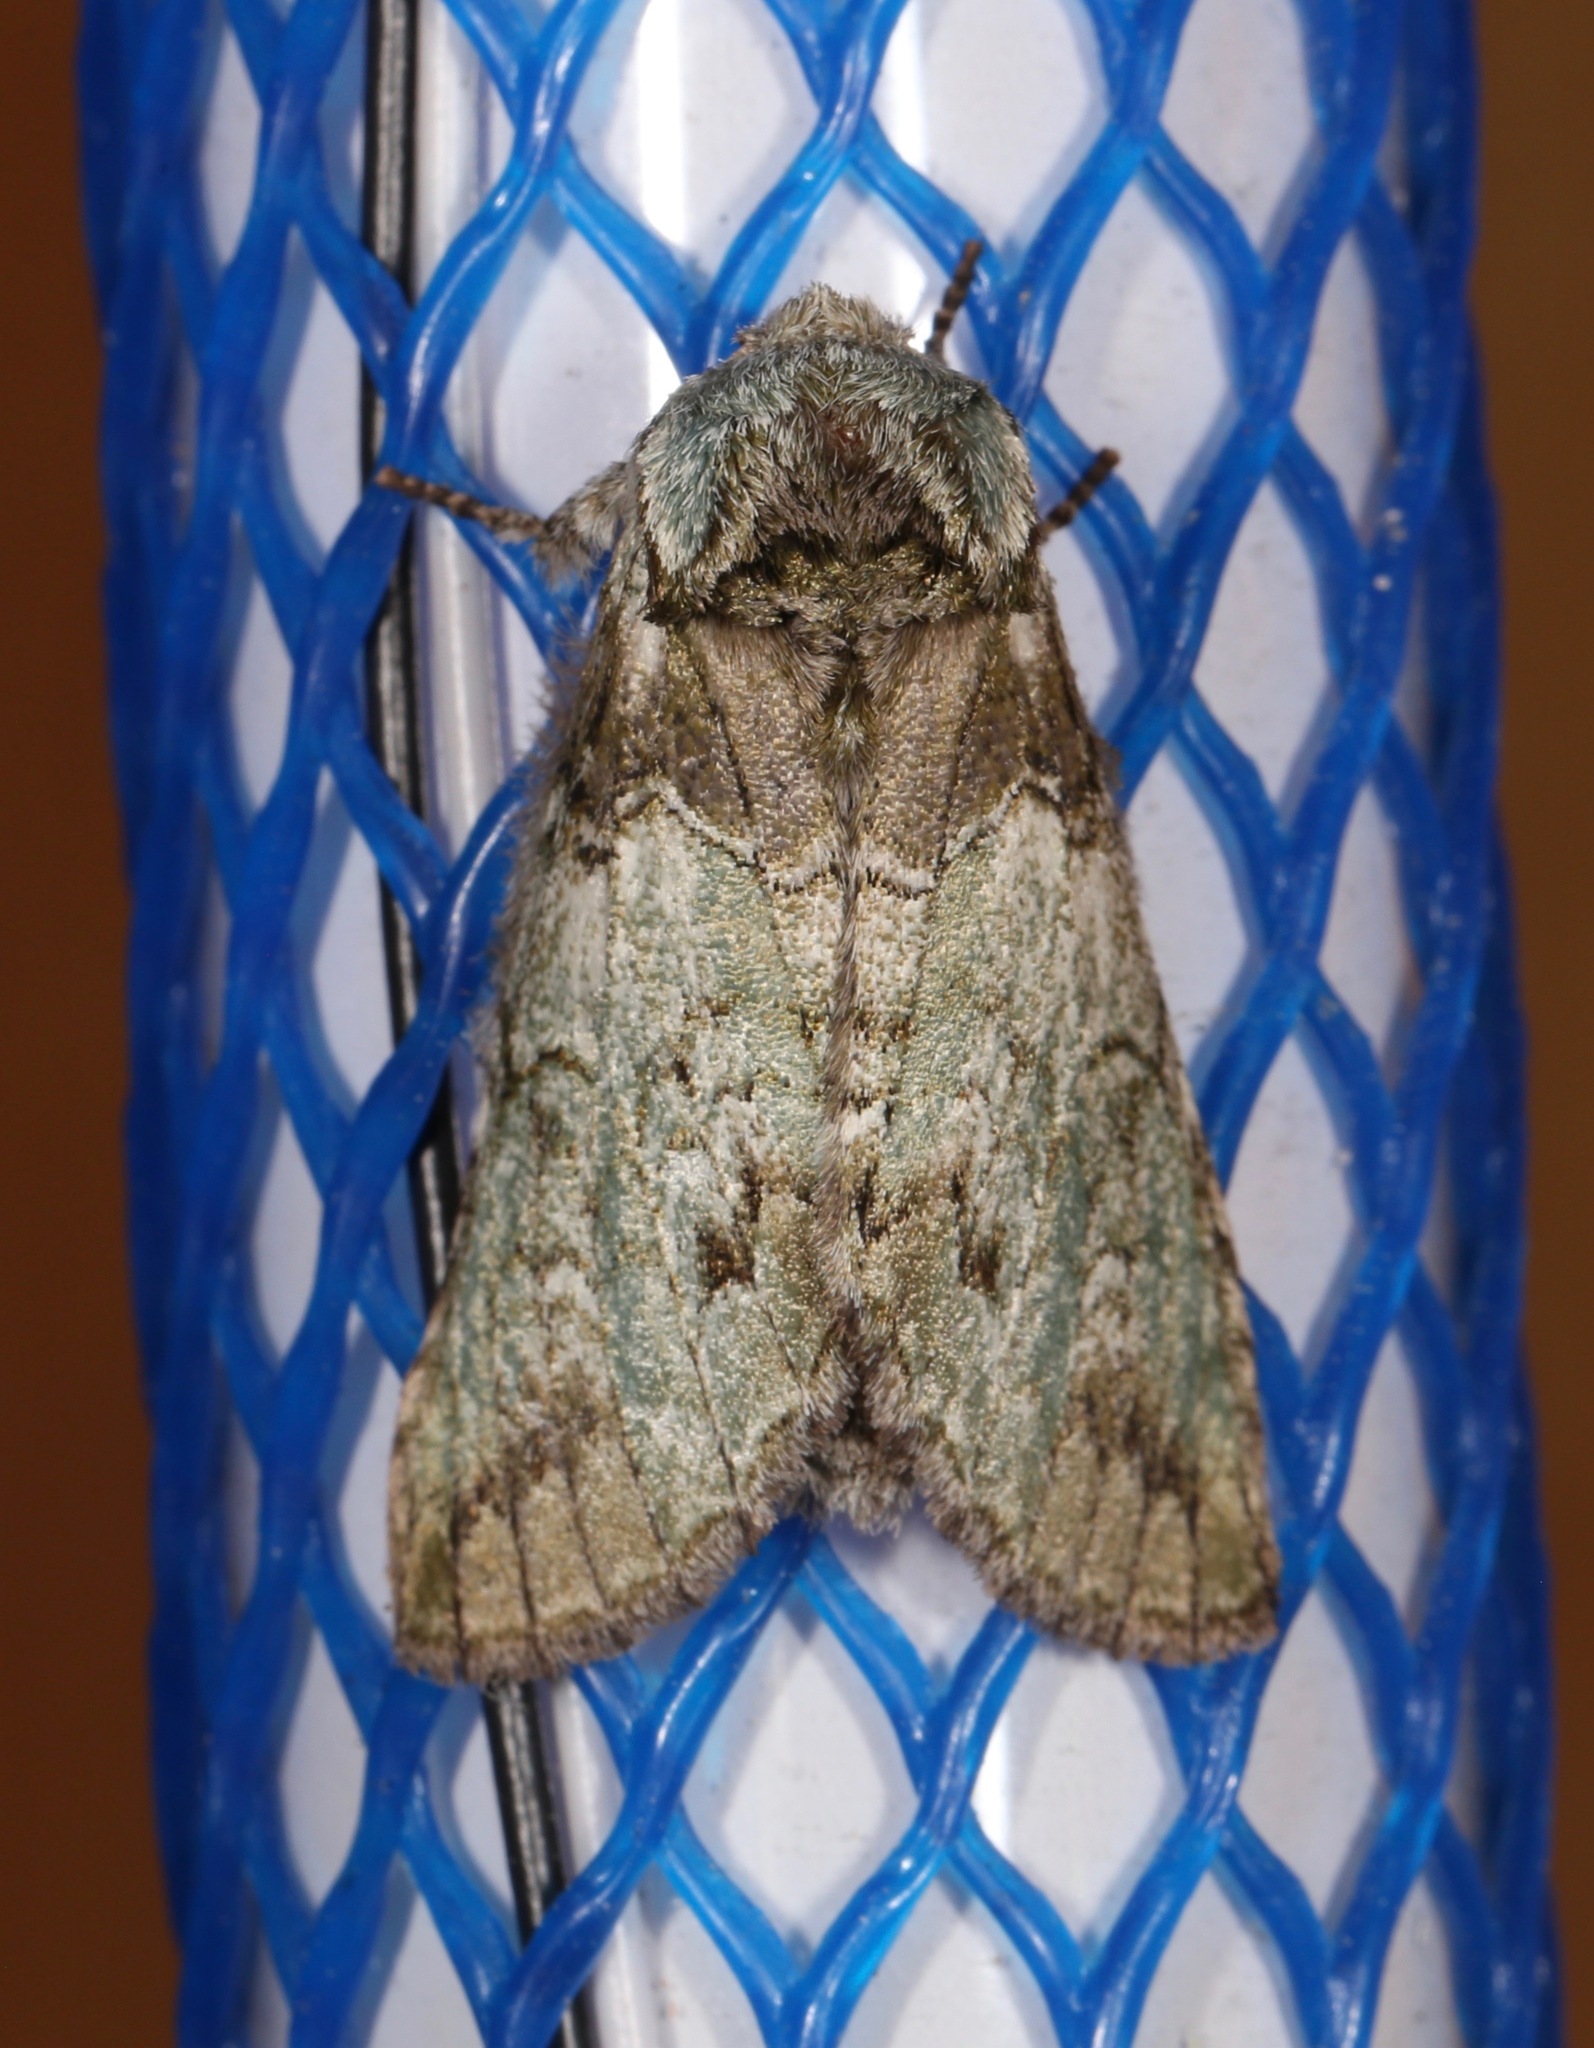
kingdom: Animalia
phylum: Arthropoda
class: Insecta
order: Lepidoptera
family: Notodontidae
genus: Macrurocampa
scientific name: Macrurocampa marthesia
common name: Mottled prominent
